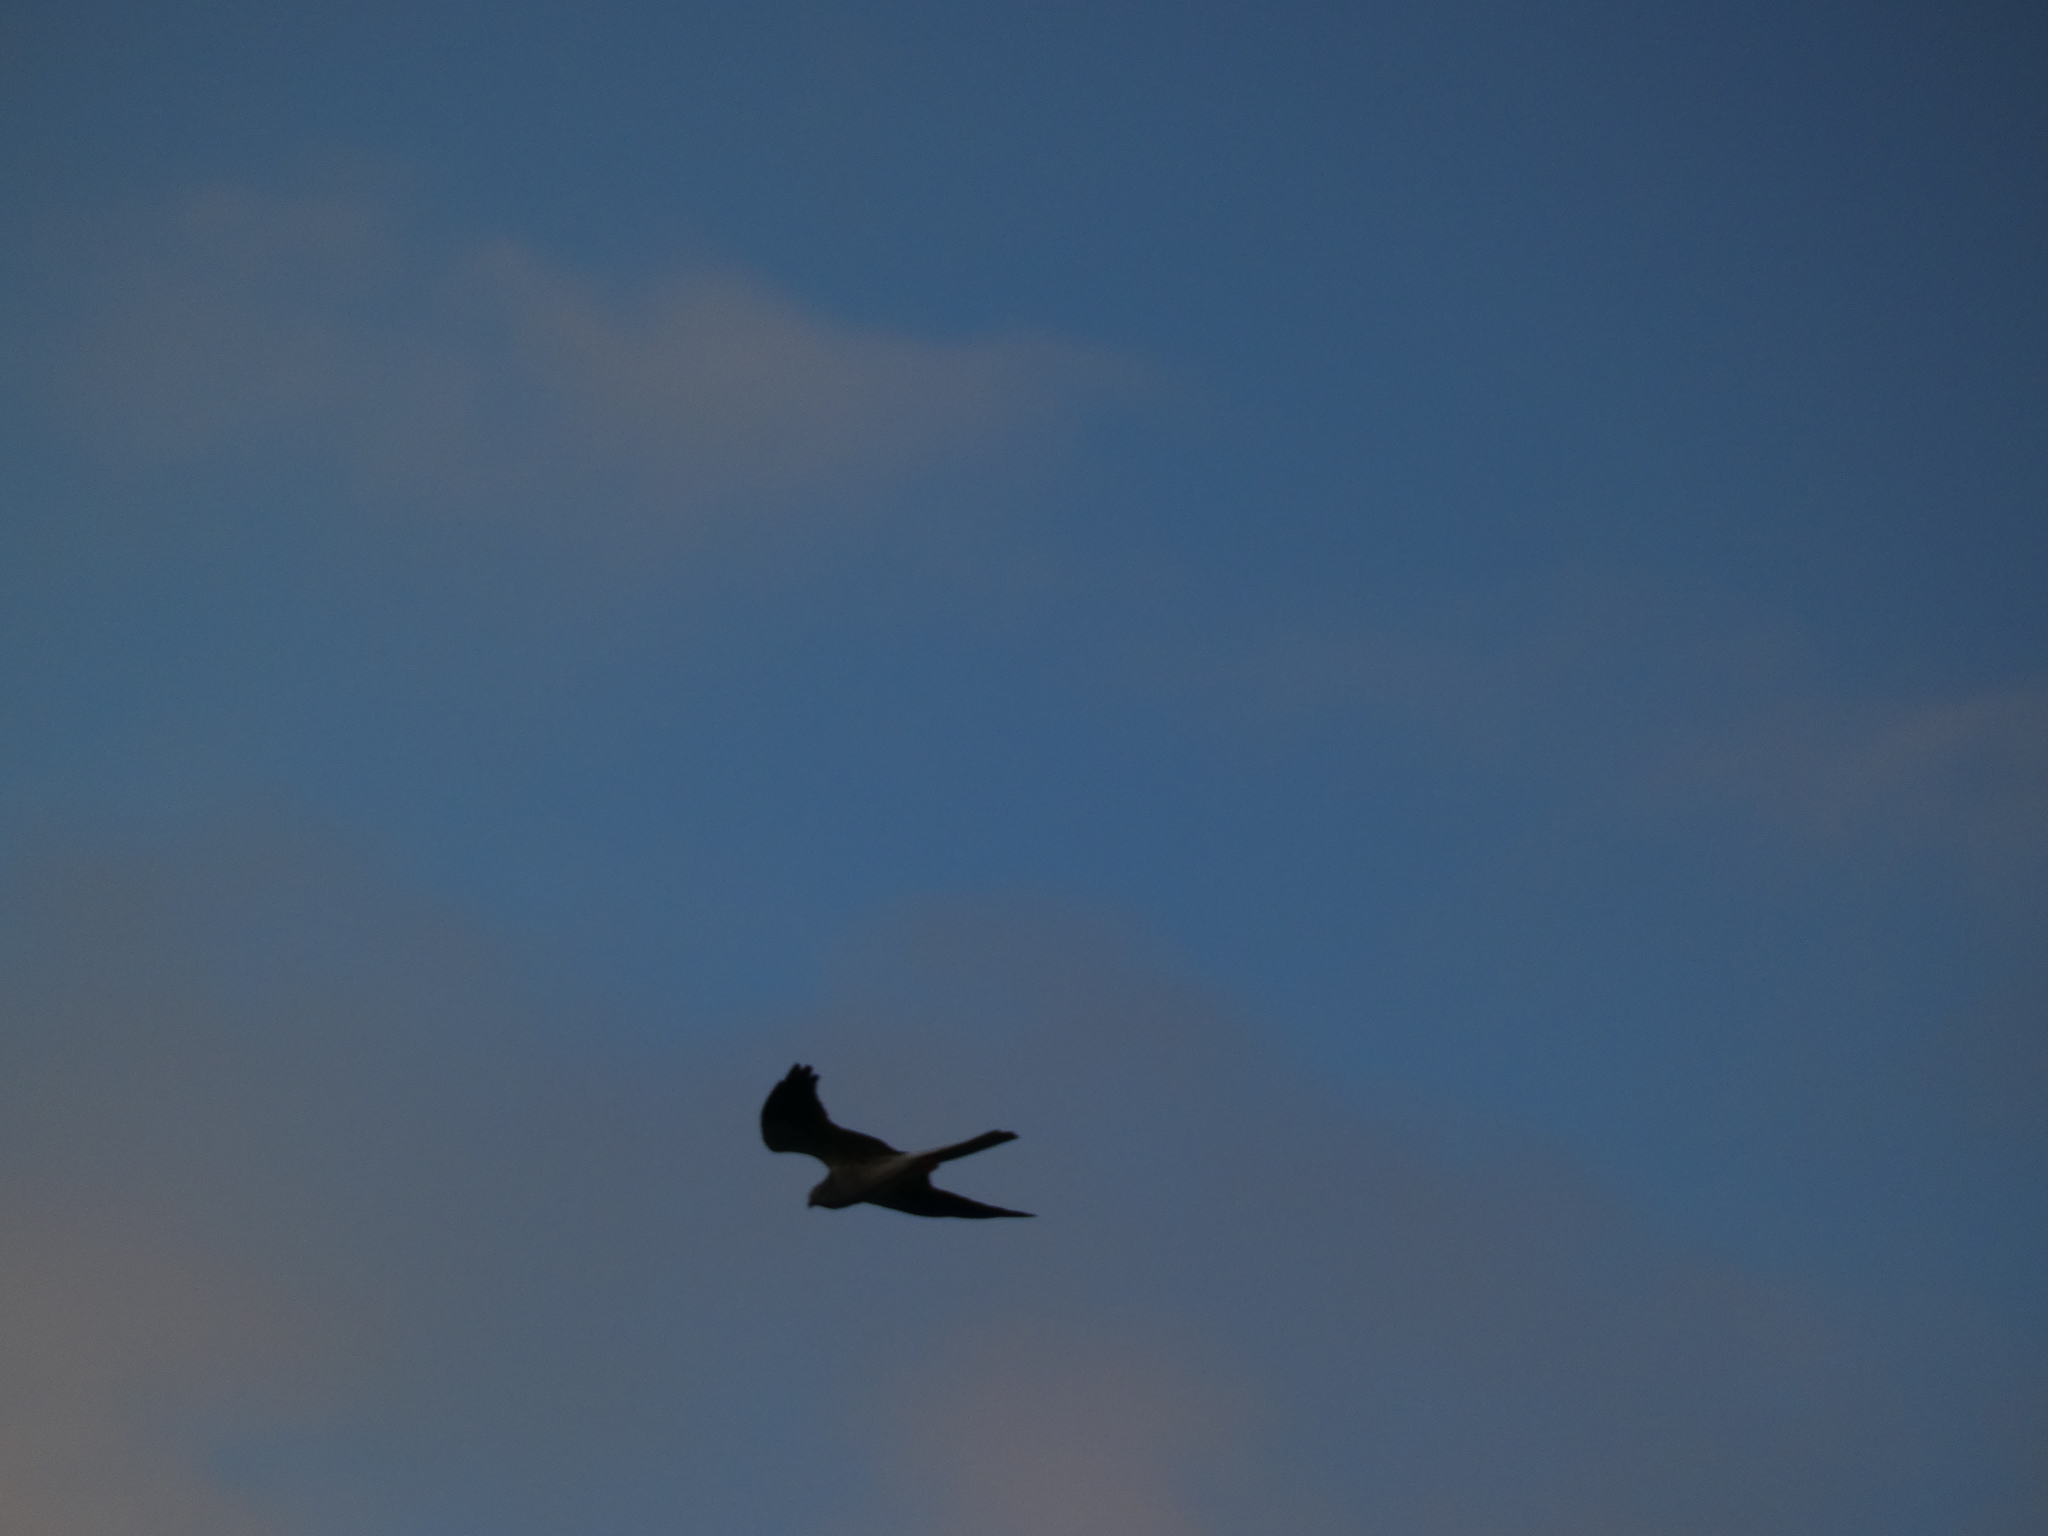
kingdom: Animalia
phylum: Chordata
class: Aves
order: Accipitriformes
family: Accipitridae
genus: Circus
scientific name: Circus pygargus
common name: Montagu's harrier
